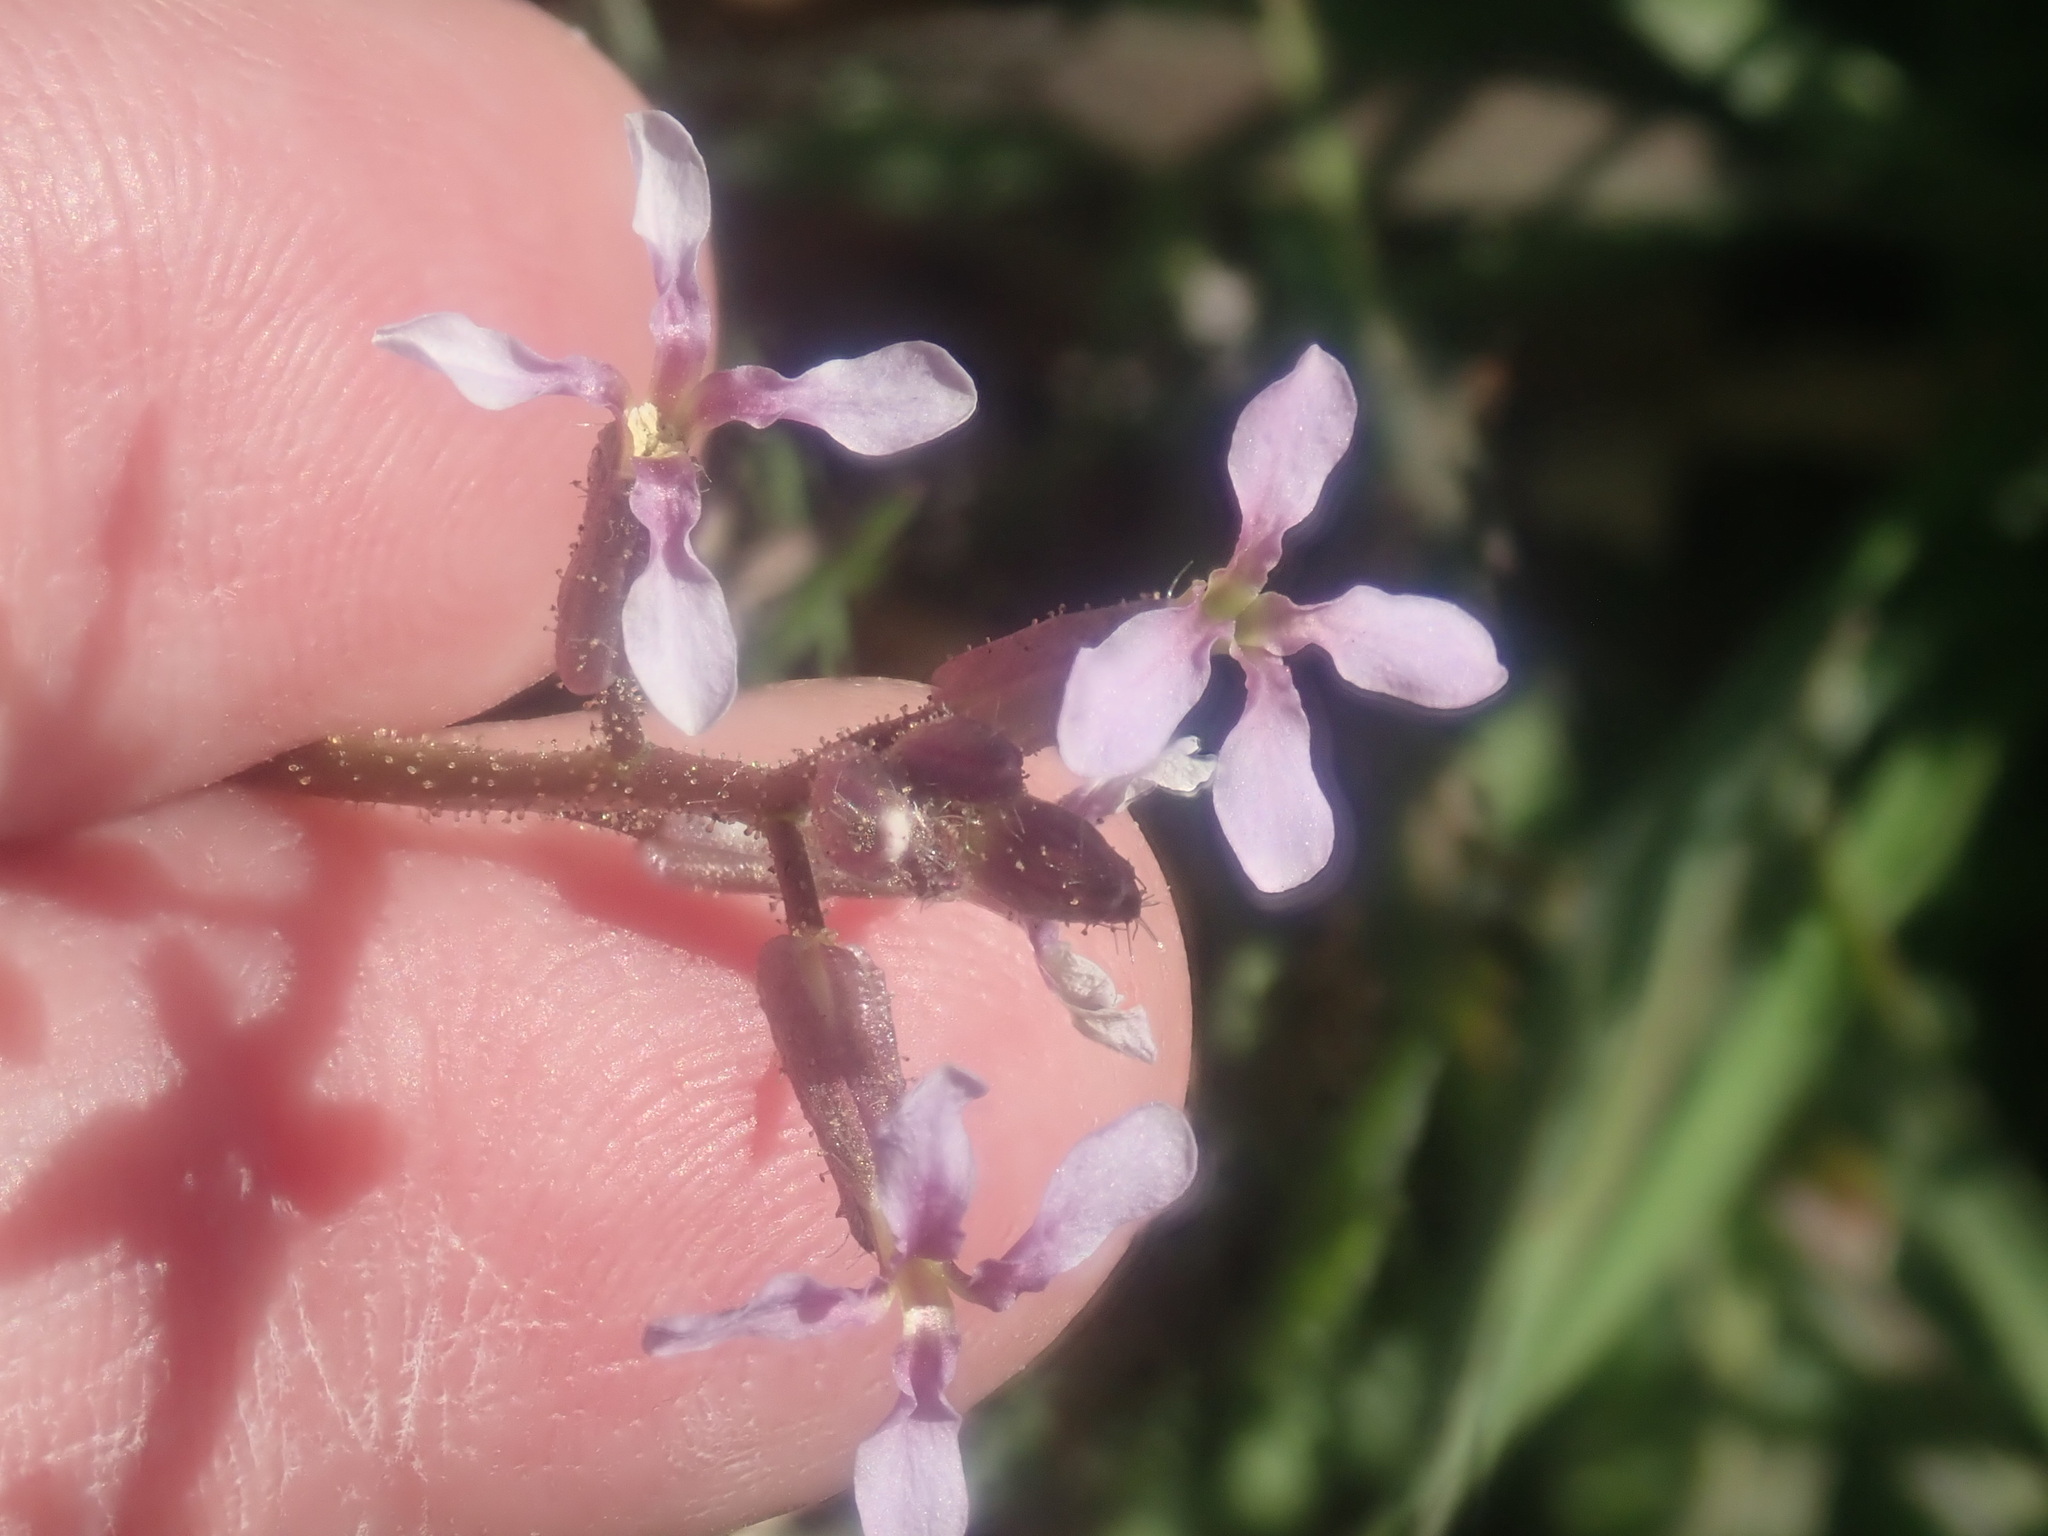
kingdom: Plantae
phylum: Tracheophyta
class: Magnoliopsida
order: Brassicales
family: Brassicaceae
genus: Chorispora
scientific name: Chorispora tenella
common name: Crossflower
